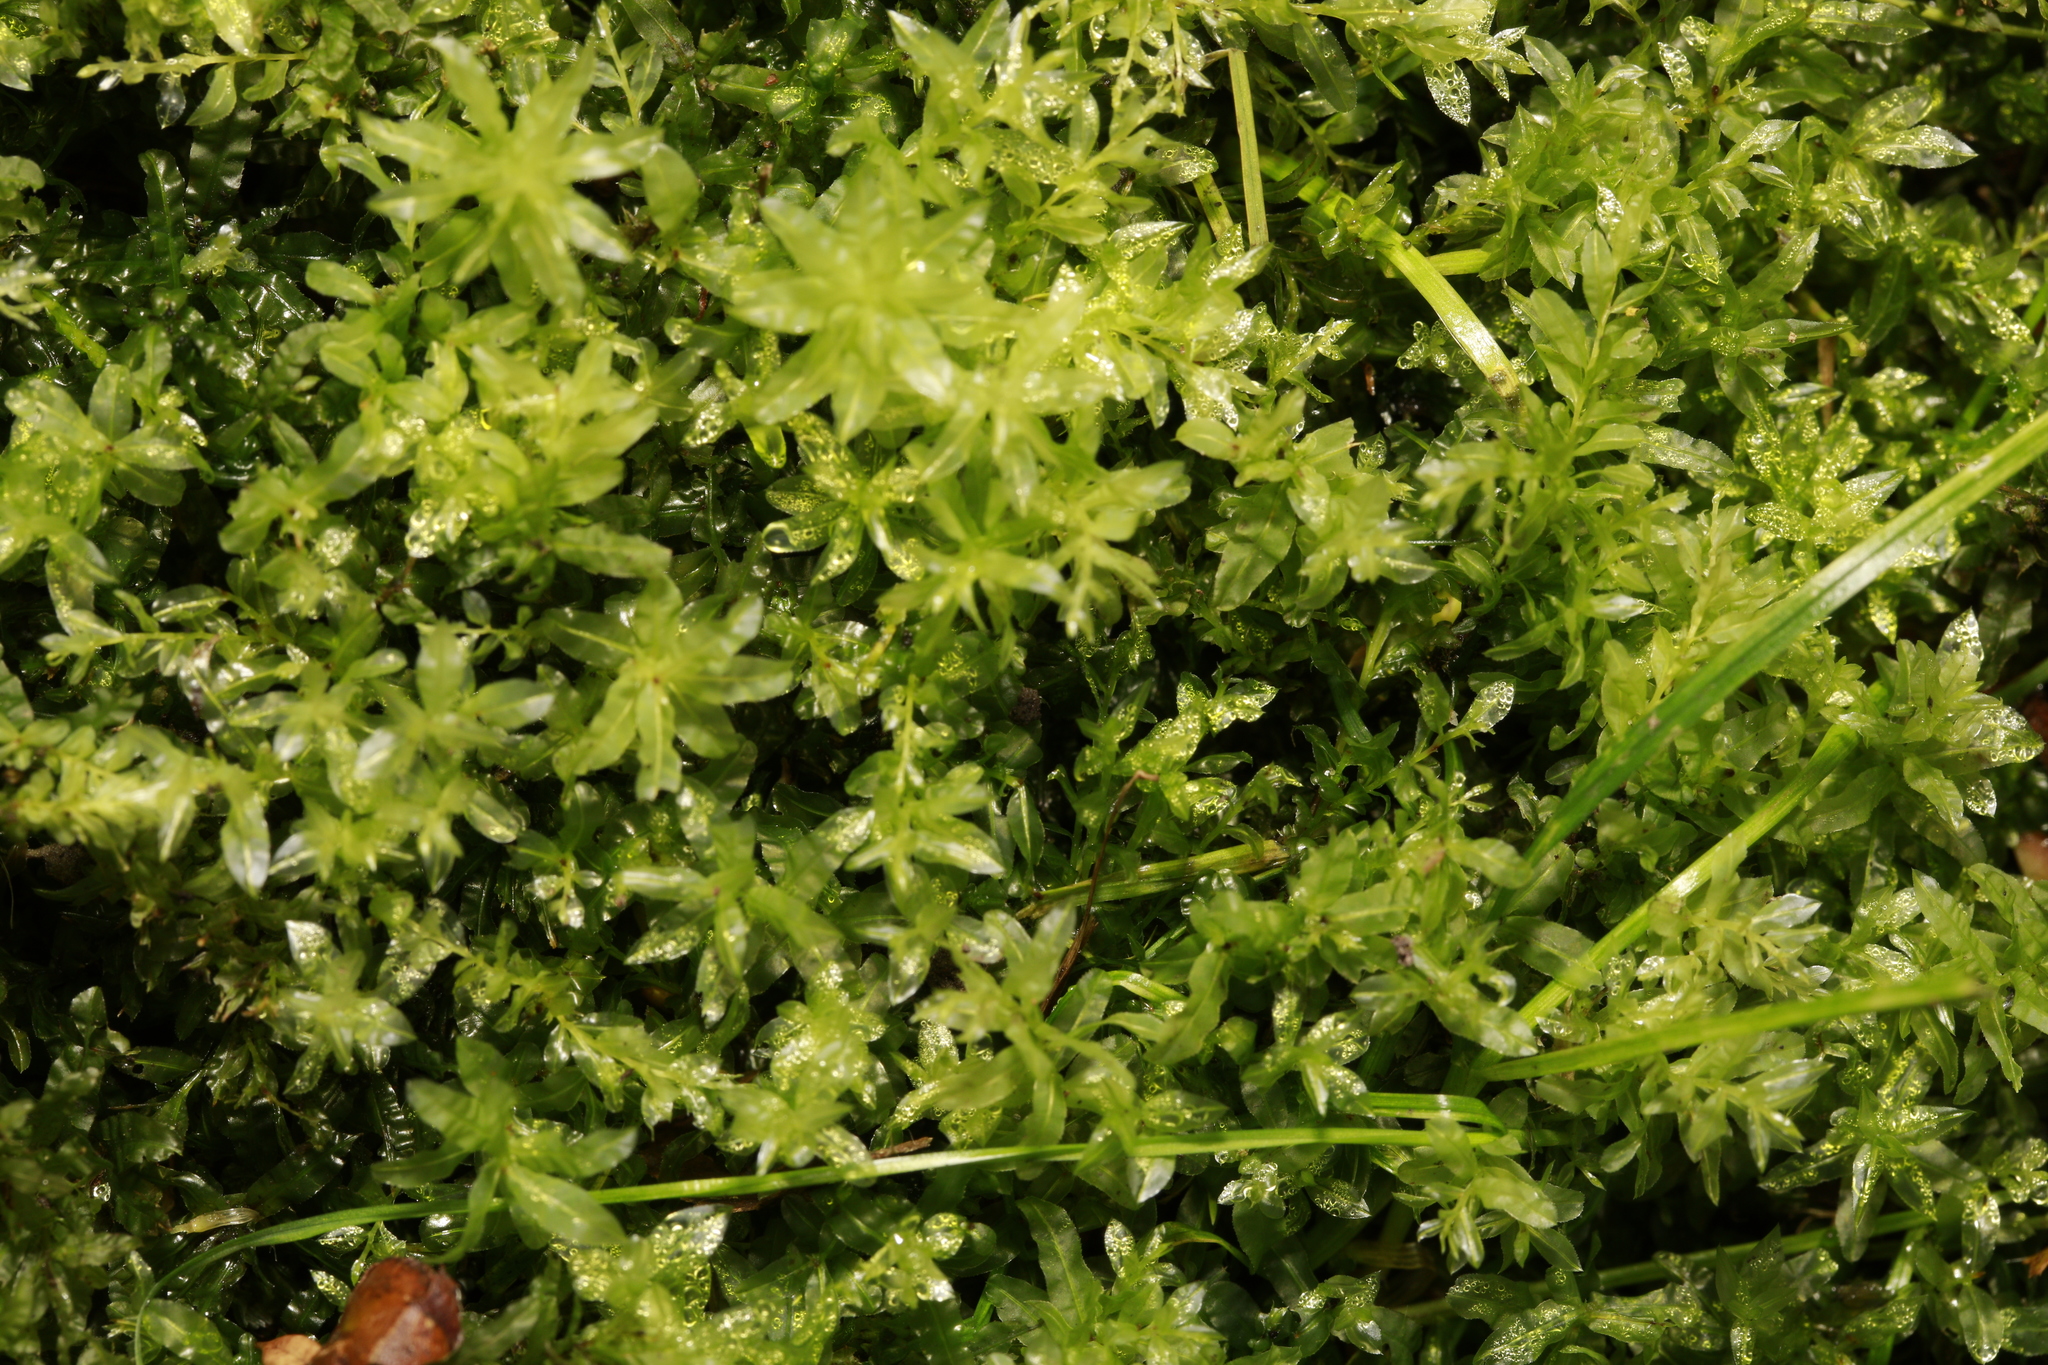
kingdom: Plantae
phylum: Bryophyta
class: Bryopsida
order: Bryales
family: Mniaceae
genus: Plagiomnium
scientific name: Plagiomnium undulatum
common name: Hart's-tongue thyme-moss
